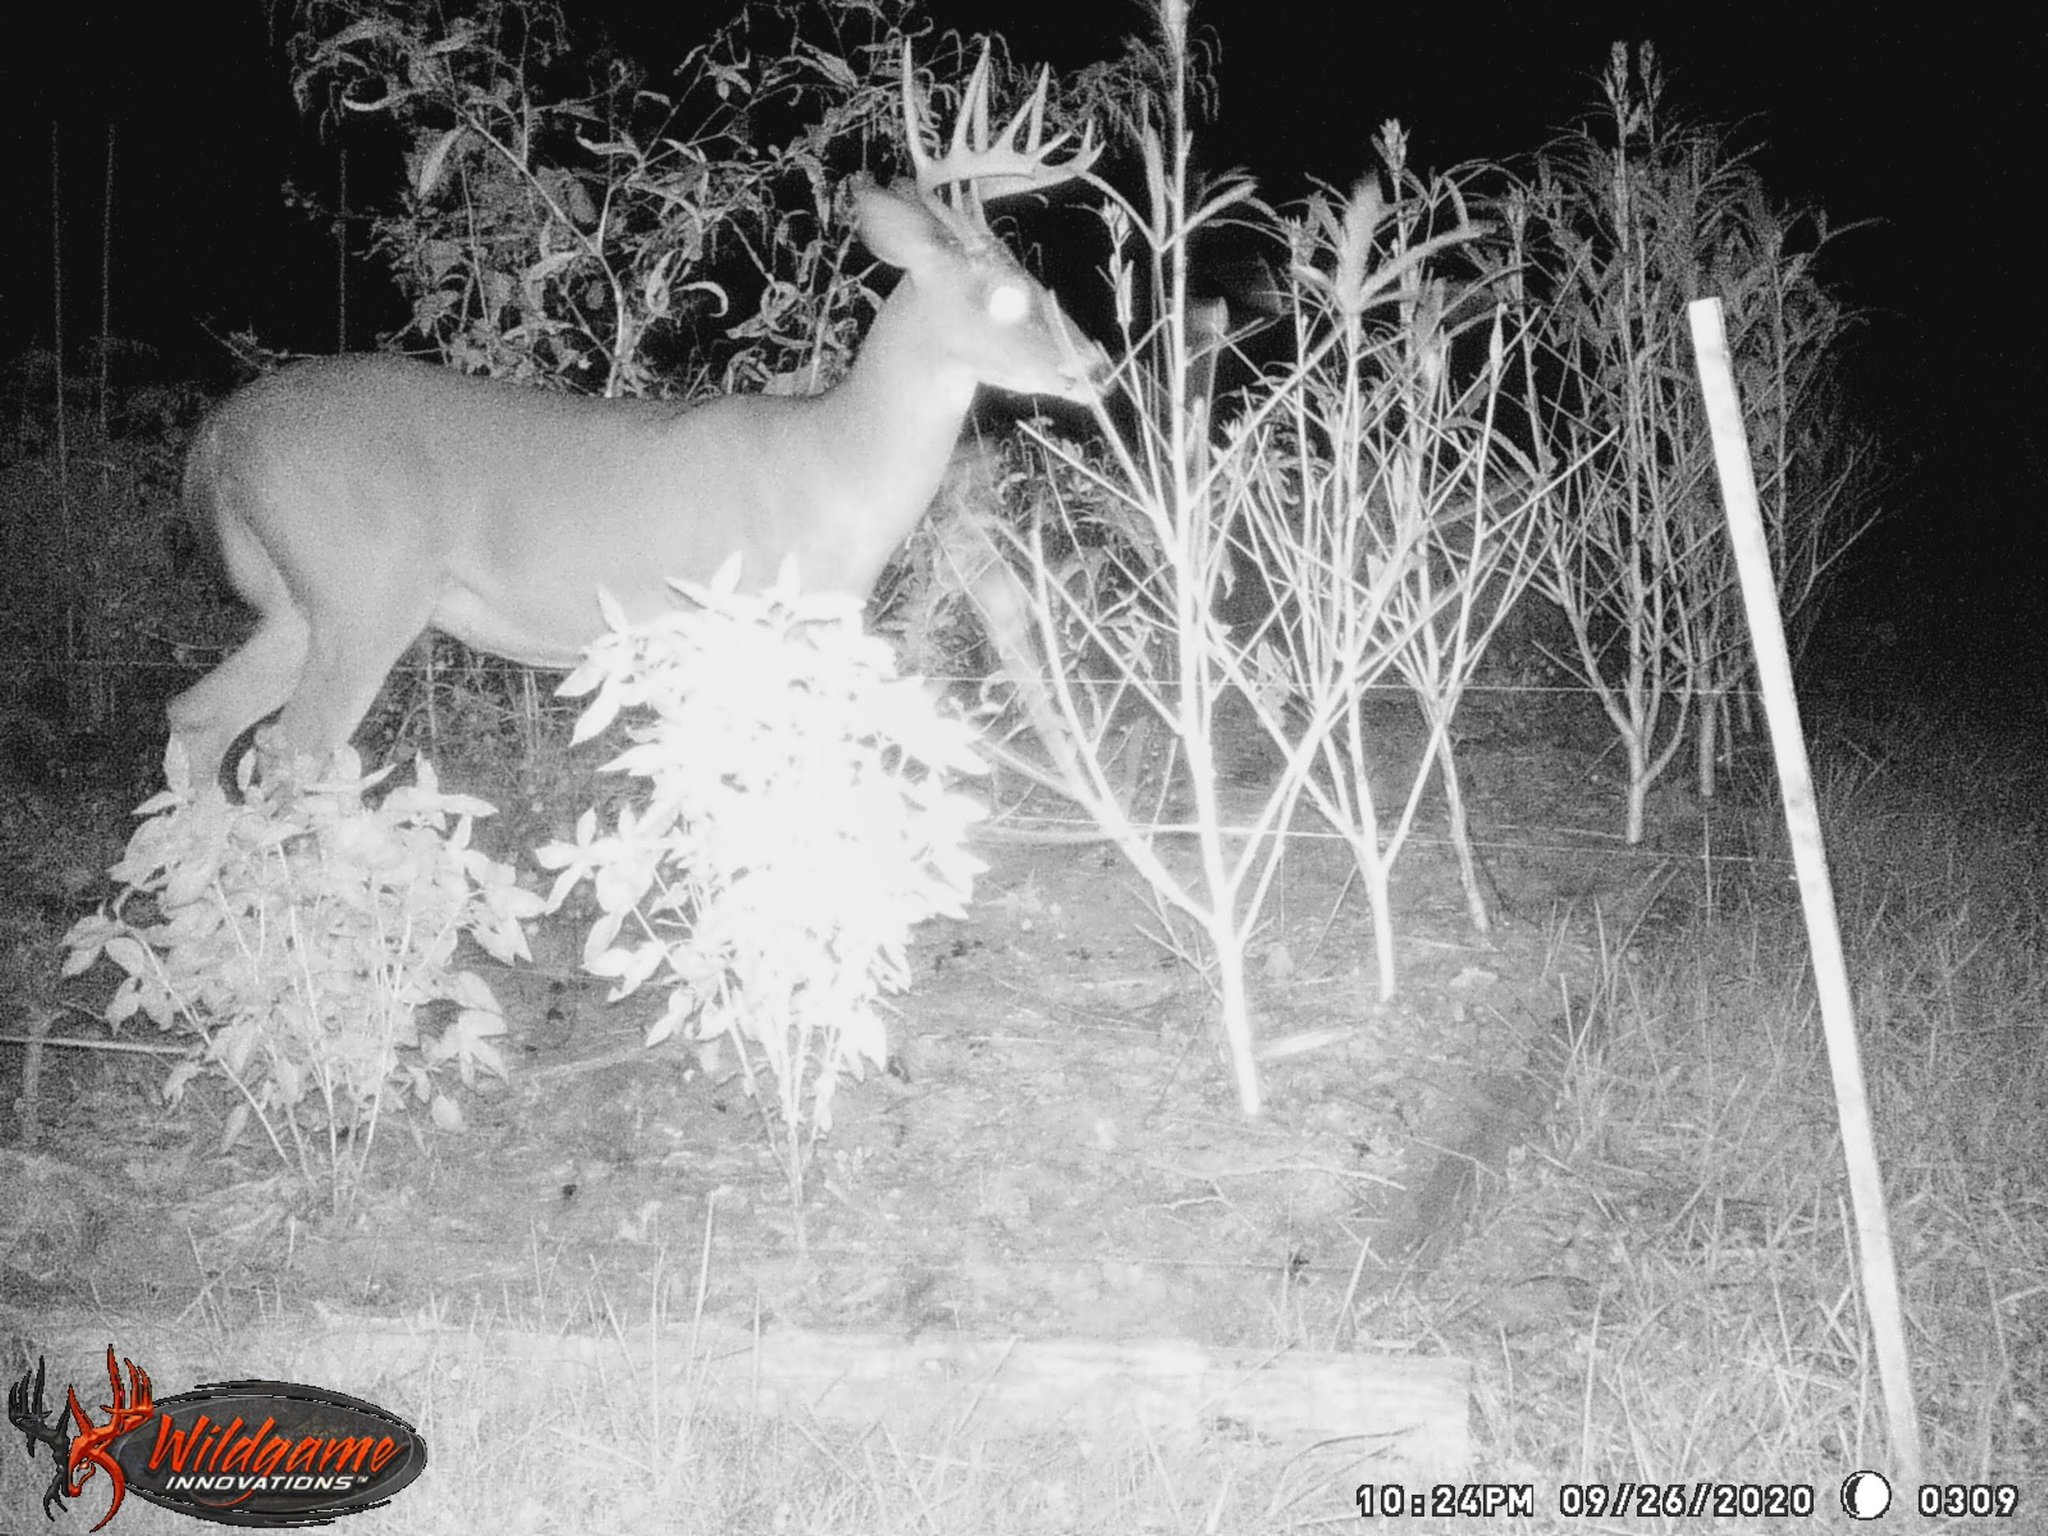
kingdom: Animalia
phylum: Chordata
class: Mammalia
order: Artiodactyla
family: Cervidae
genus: Odocoileus
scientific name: Odocoileus virginianus
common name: White-tailed deer
